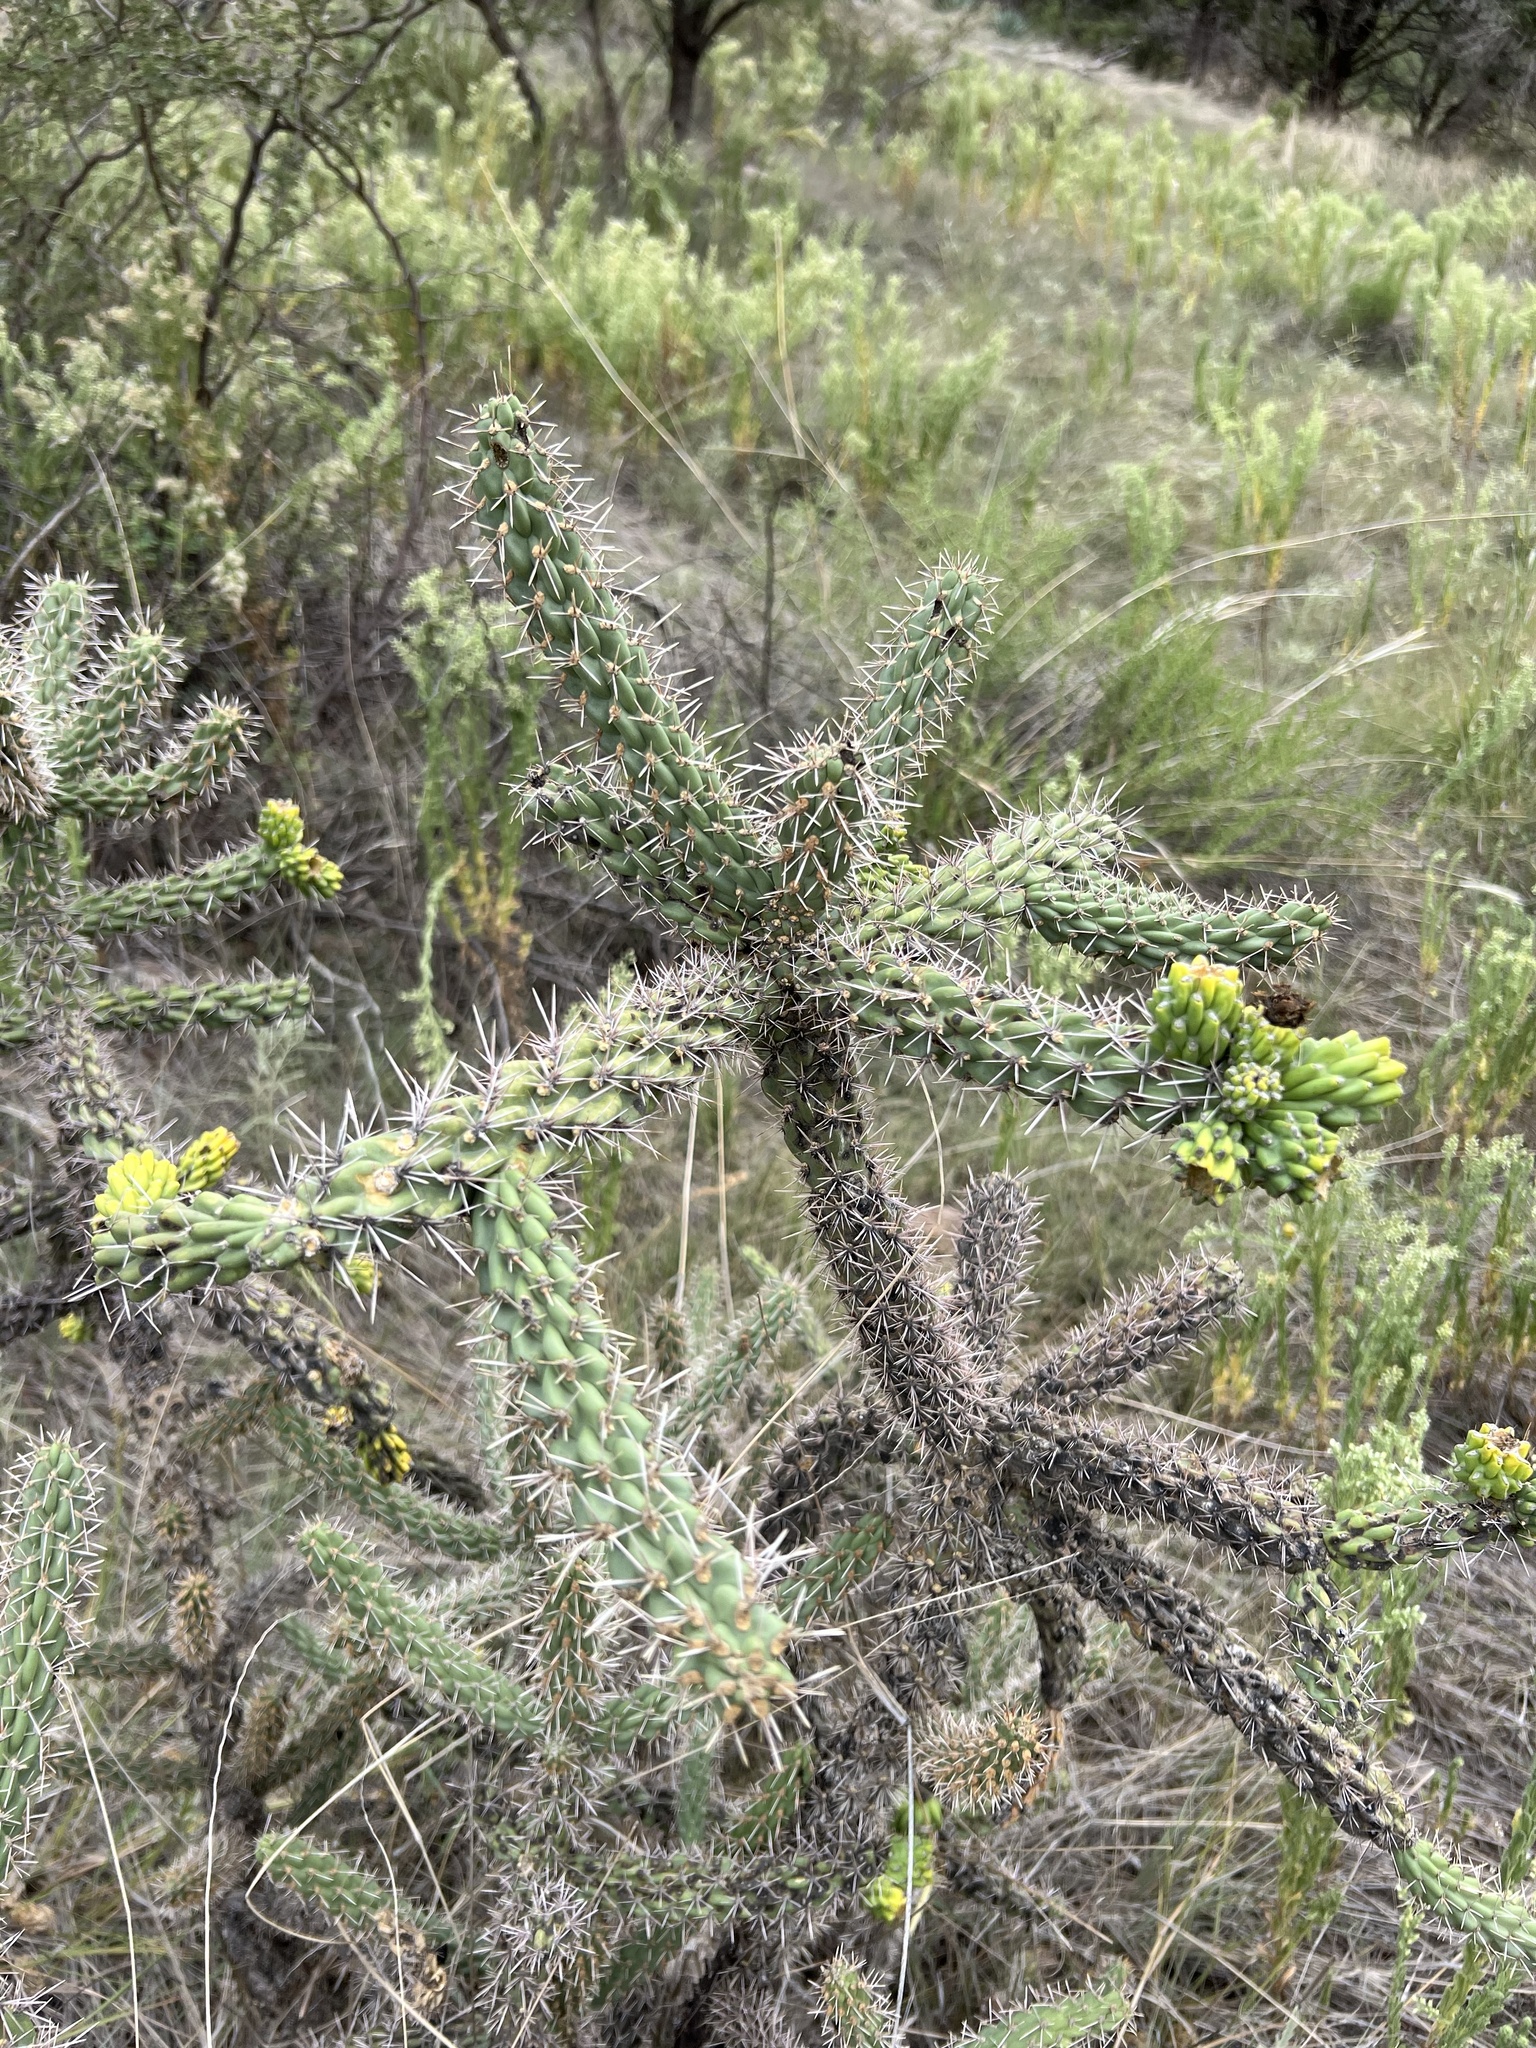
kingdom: Plantae
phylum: Tracheophyta
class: Magnoliopsida
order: Caryophyllales
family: Cactaceae
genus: Cylindropuntia
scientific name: Cylindropuntia imbricata
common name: Candelabrum cactus
